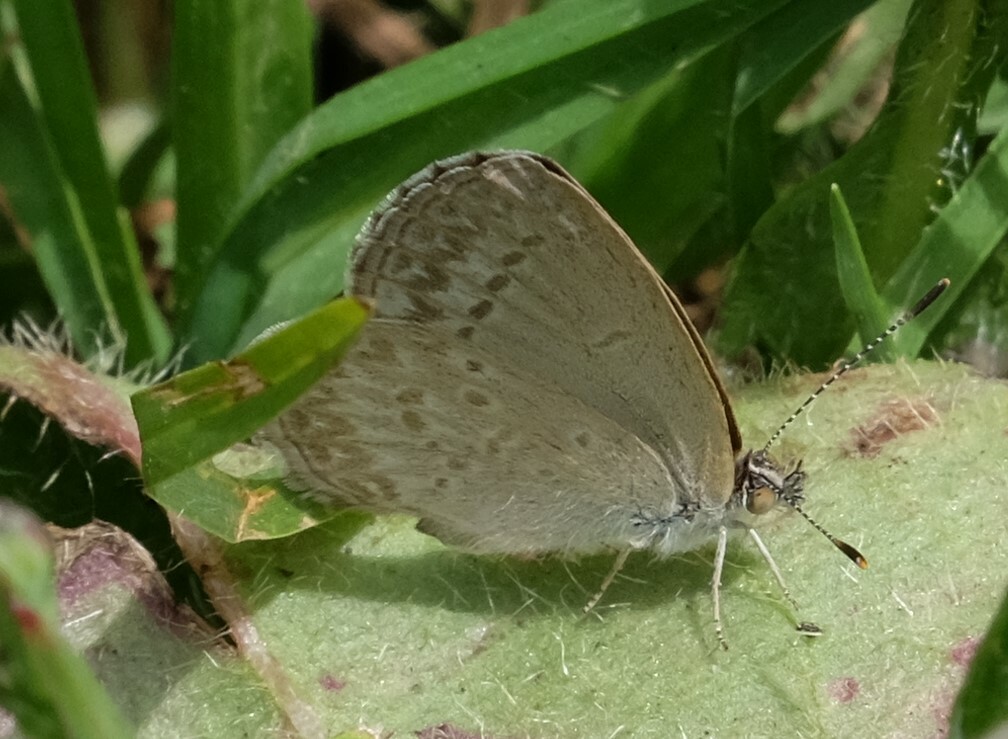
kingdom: Animalia
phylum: Arthropoda
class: Insecta
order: Lepidoptera
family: Lycaenidae
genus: Zizina
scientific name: Zizina otis
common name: Lesser grass blue
